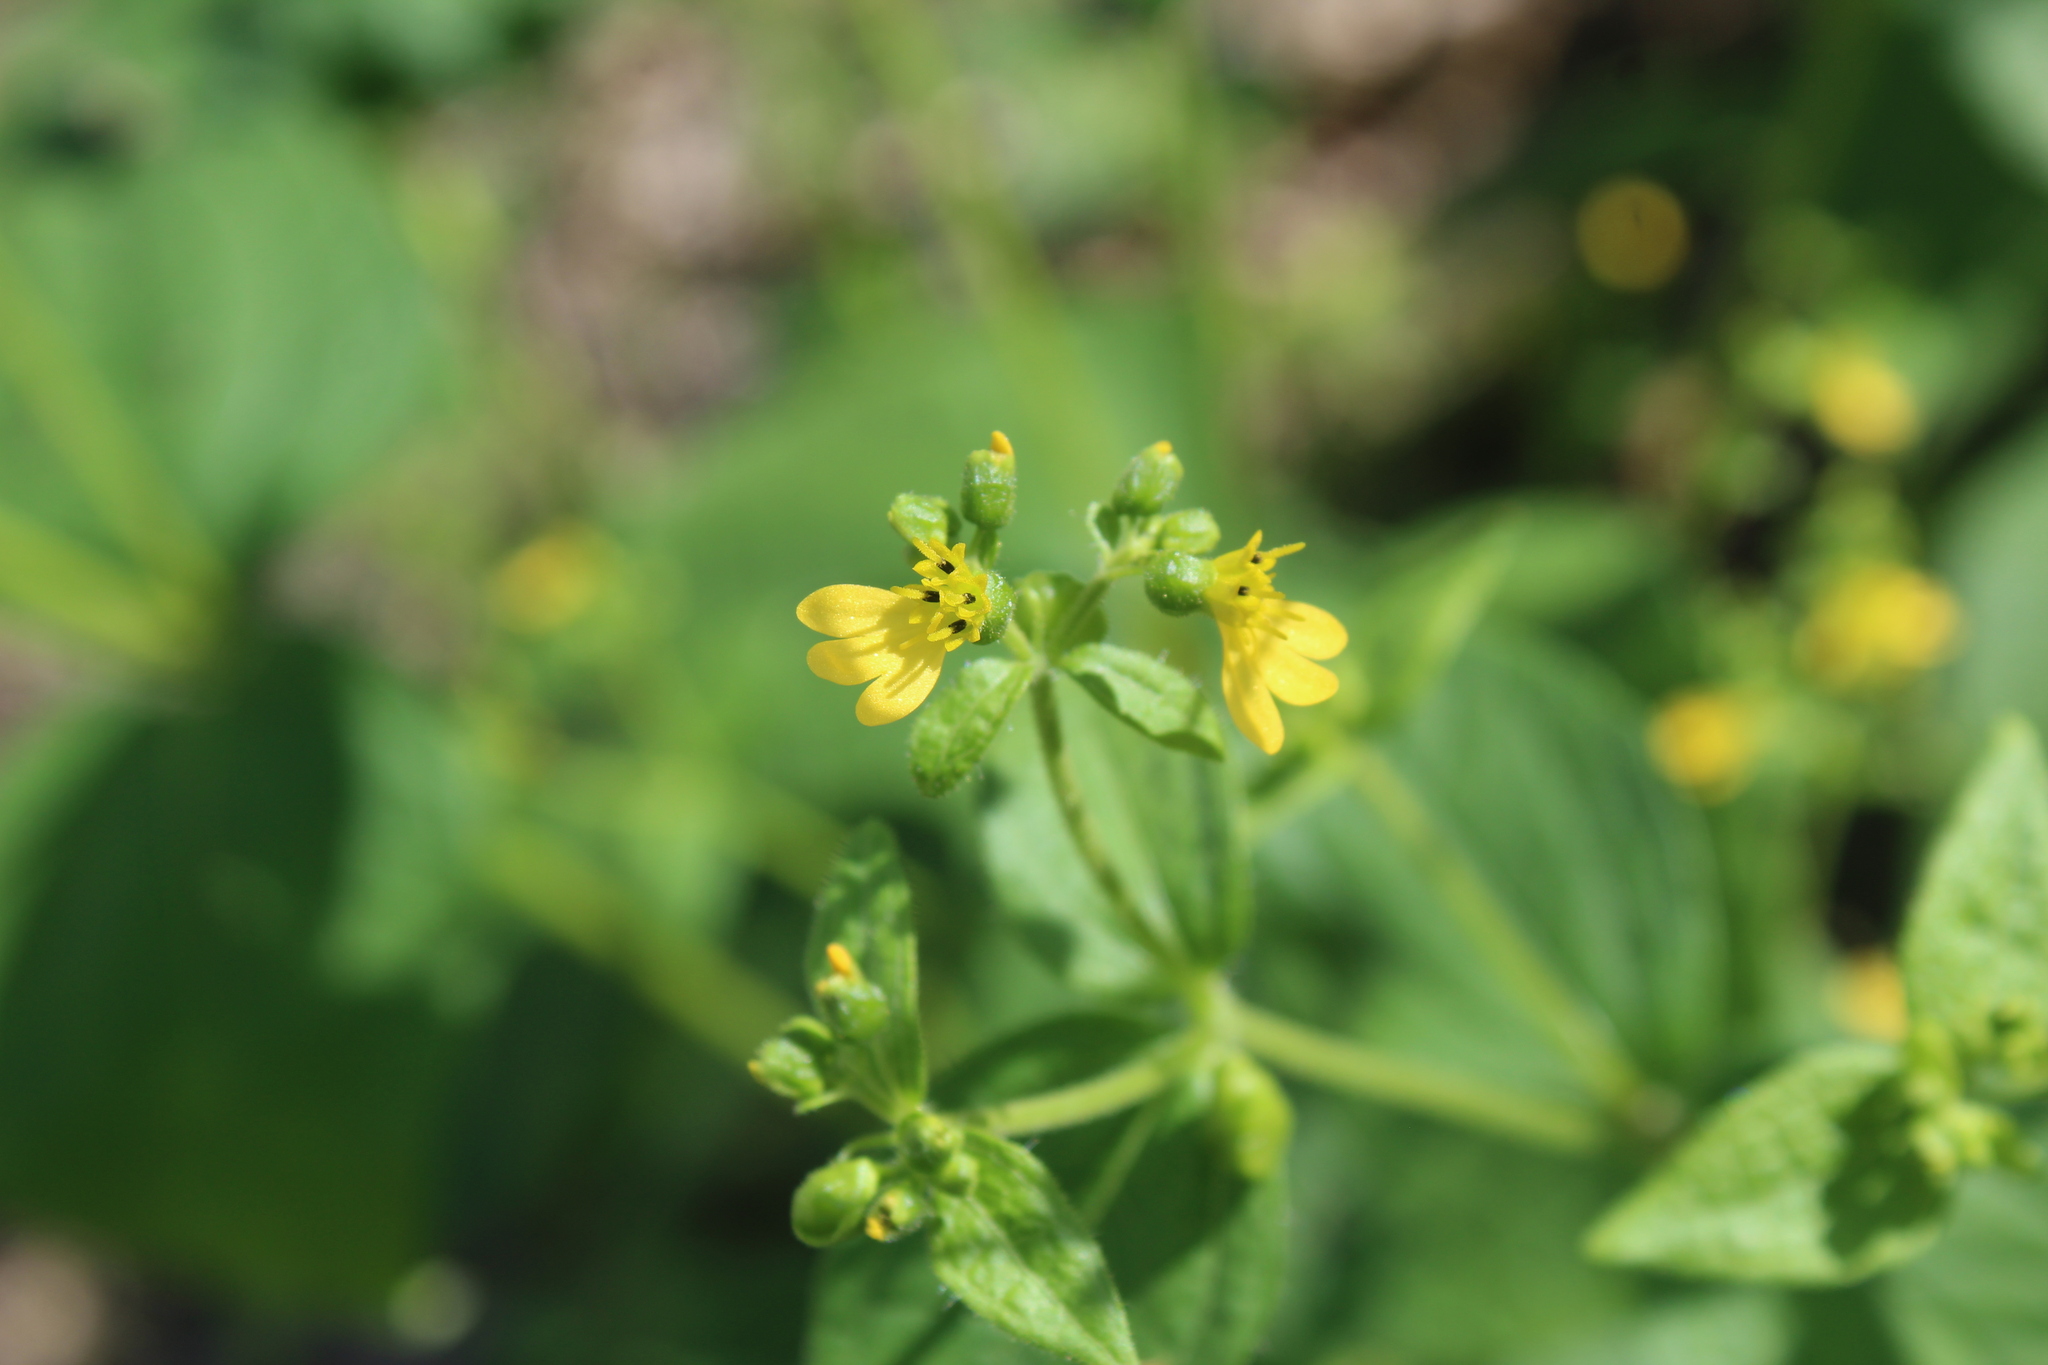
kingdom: Plantae
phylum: Tracheophyta
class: Magnoliopsida
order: Asterales
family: Asteraceae
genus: Milleria
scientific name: Milleria quinqueflora
